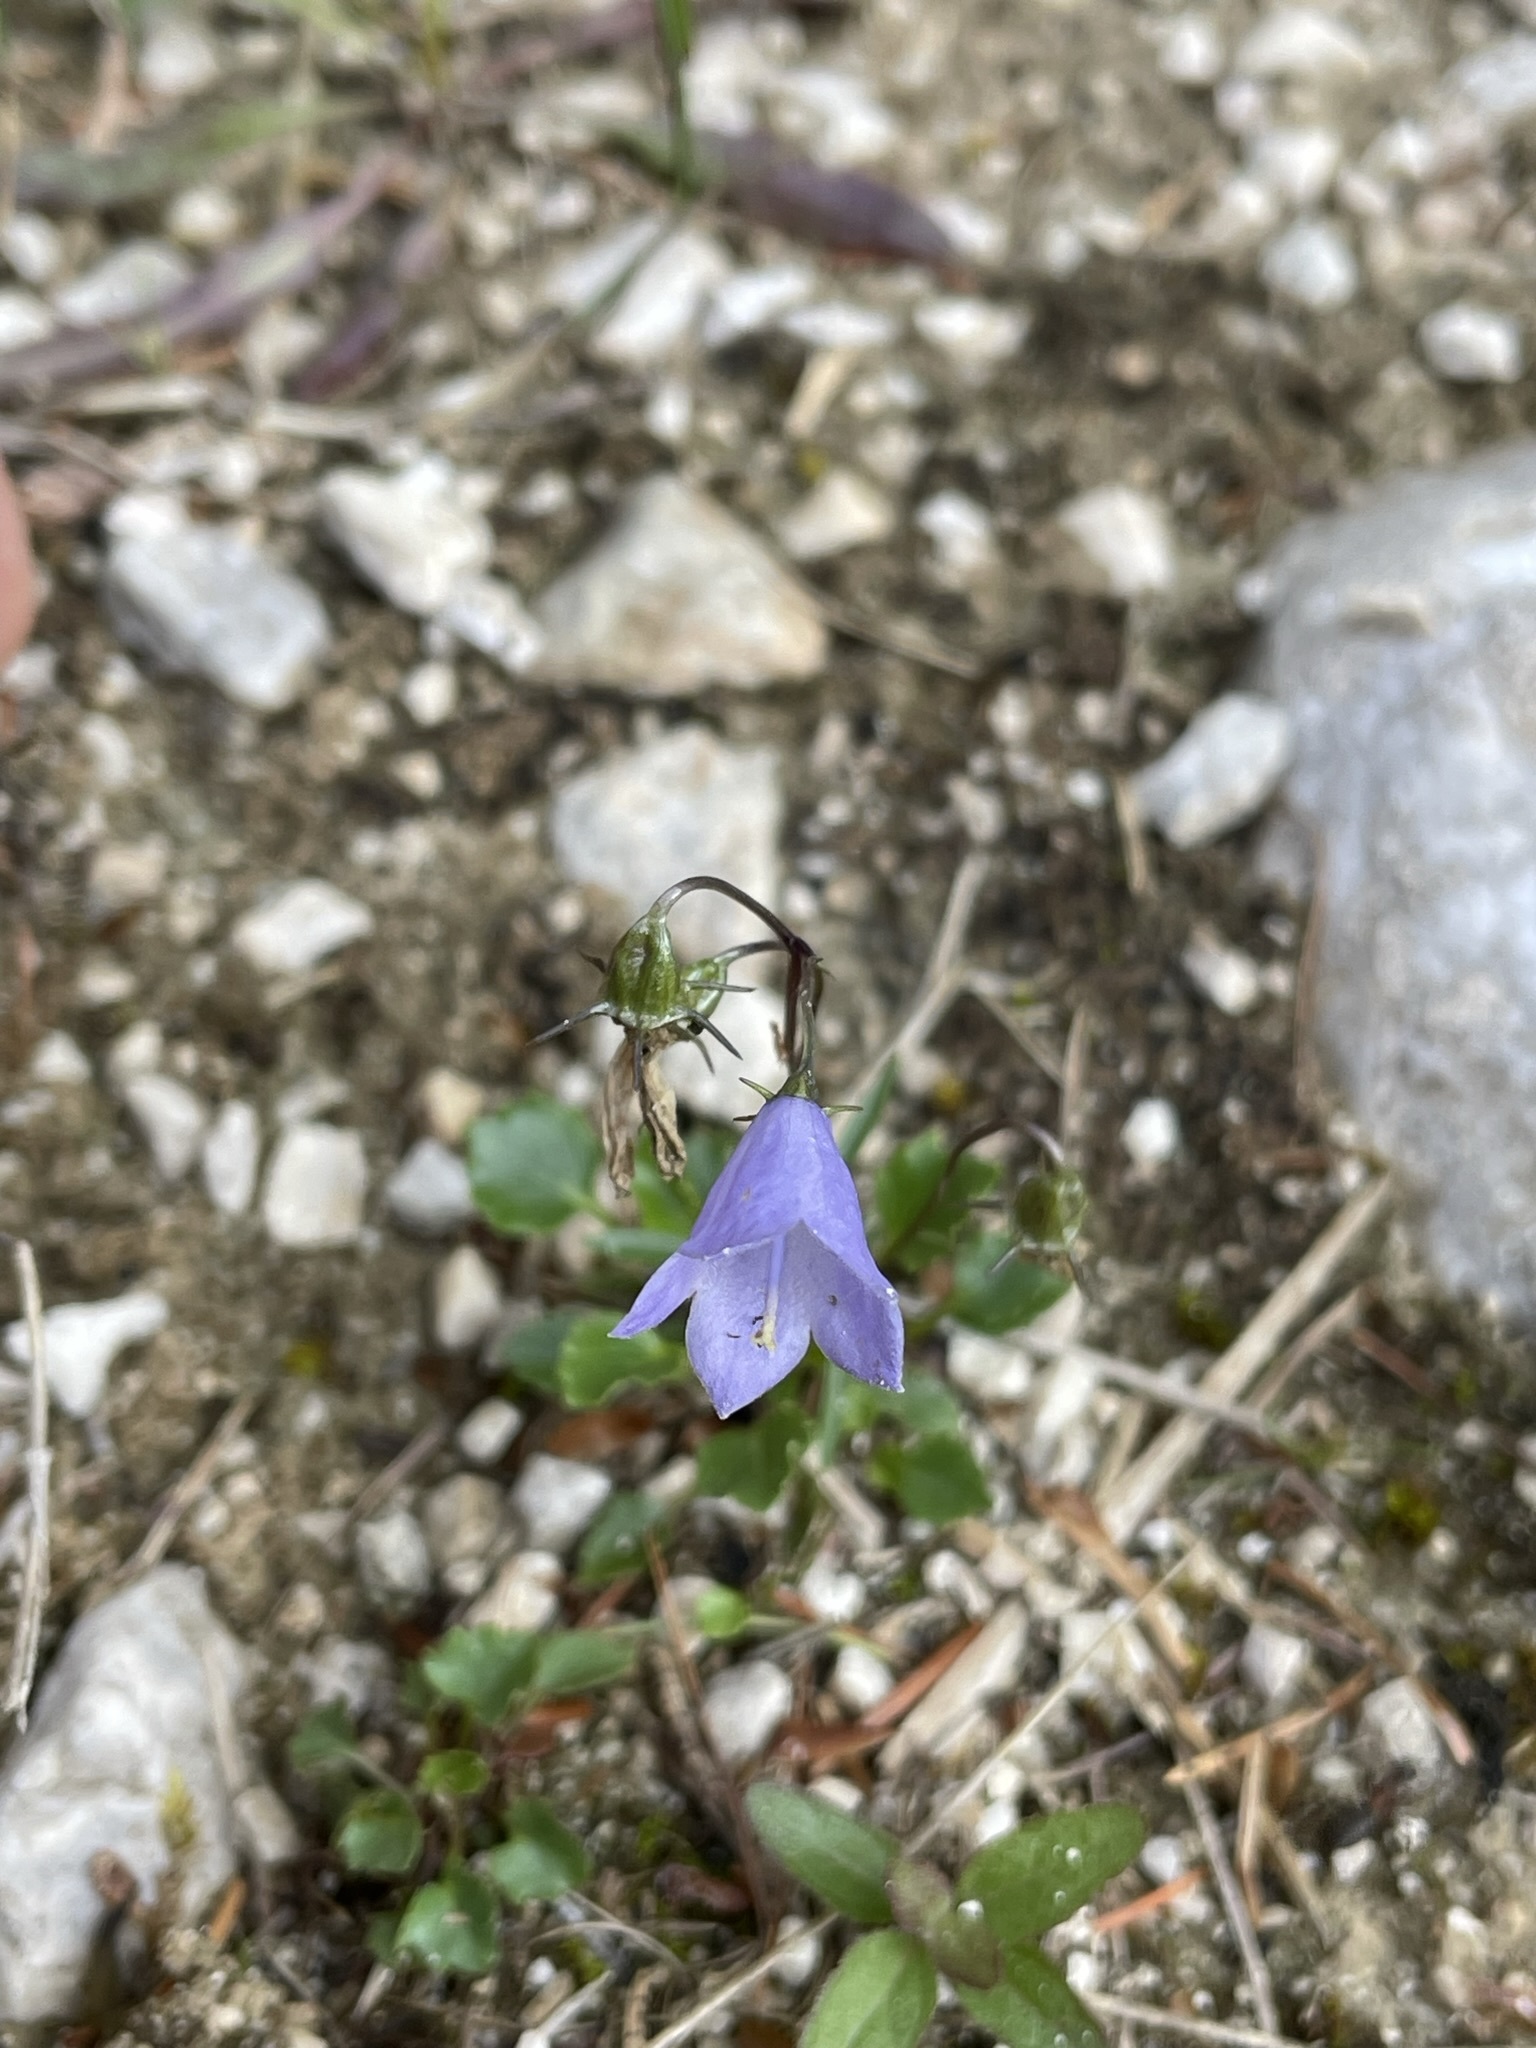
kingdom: Plantae
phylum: Tracheophyta
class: Magnoliopsida
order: Asterales
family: Campanulaceae
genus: Campanula
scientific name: Campanula cochleariifolia
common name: Fairies'-thimbles
